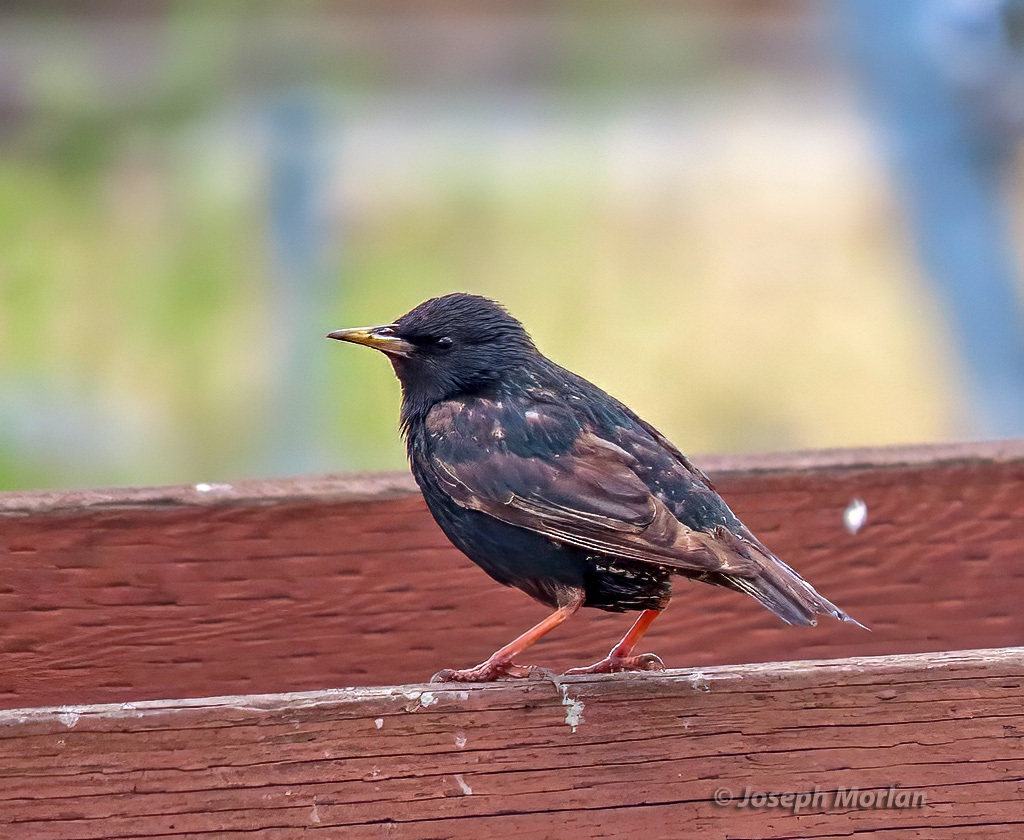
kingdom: Animalia
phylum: Chordata
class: Aves
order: Passeriformes
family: Sturnidae
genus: Sturnus
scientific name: Sturnus vulgaris
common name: Common starling
